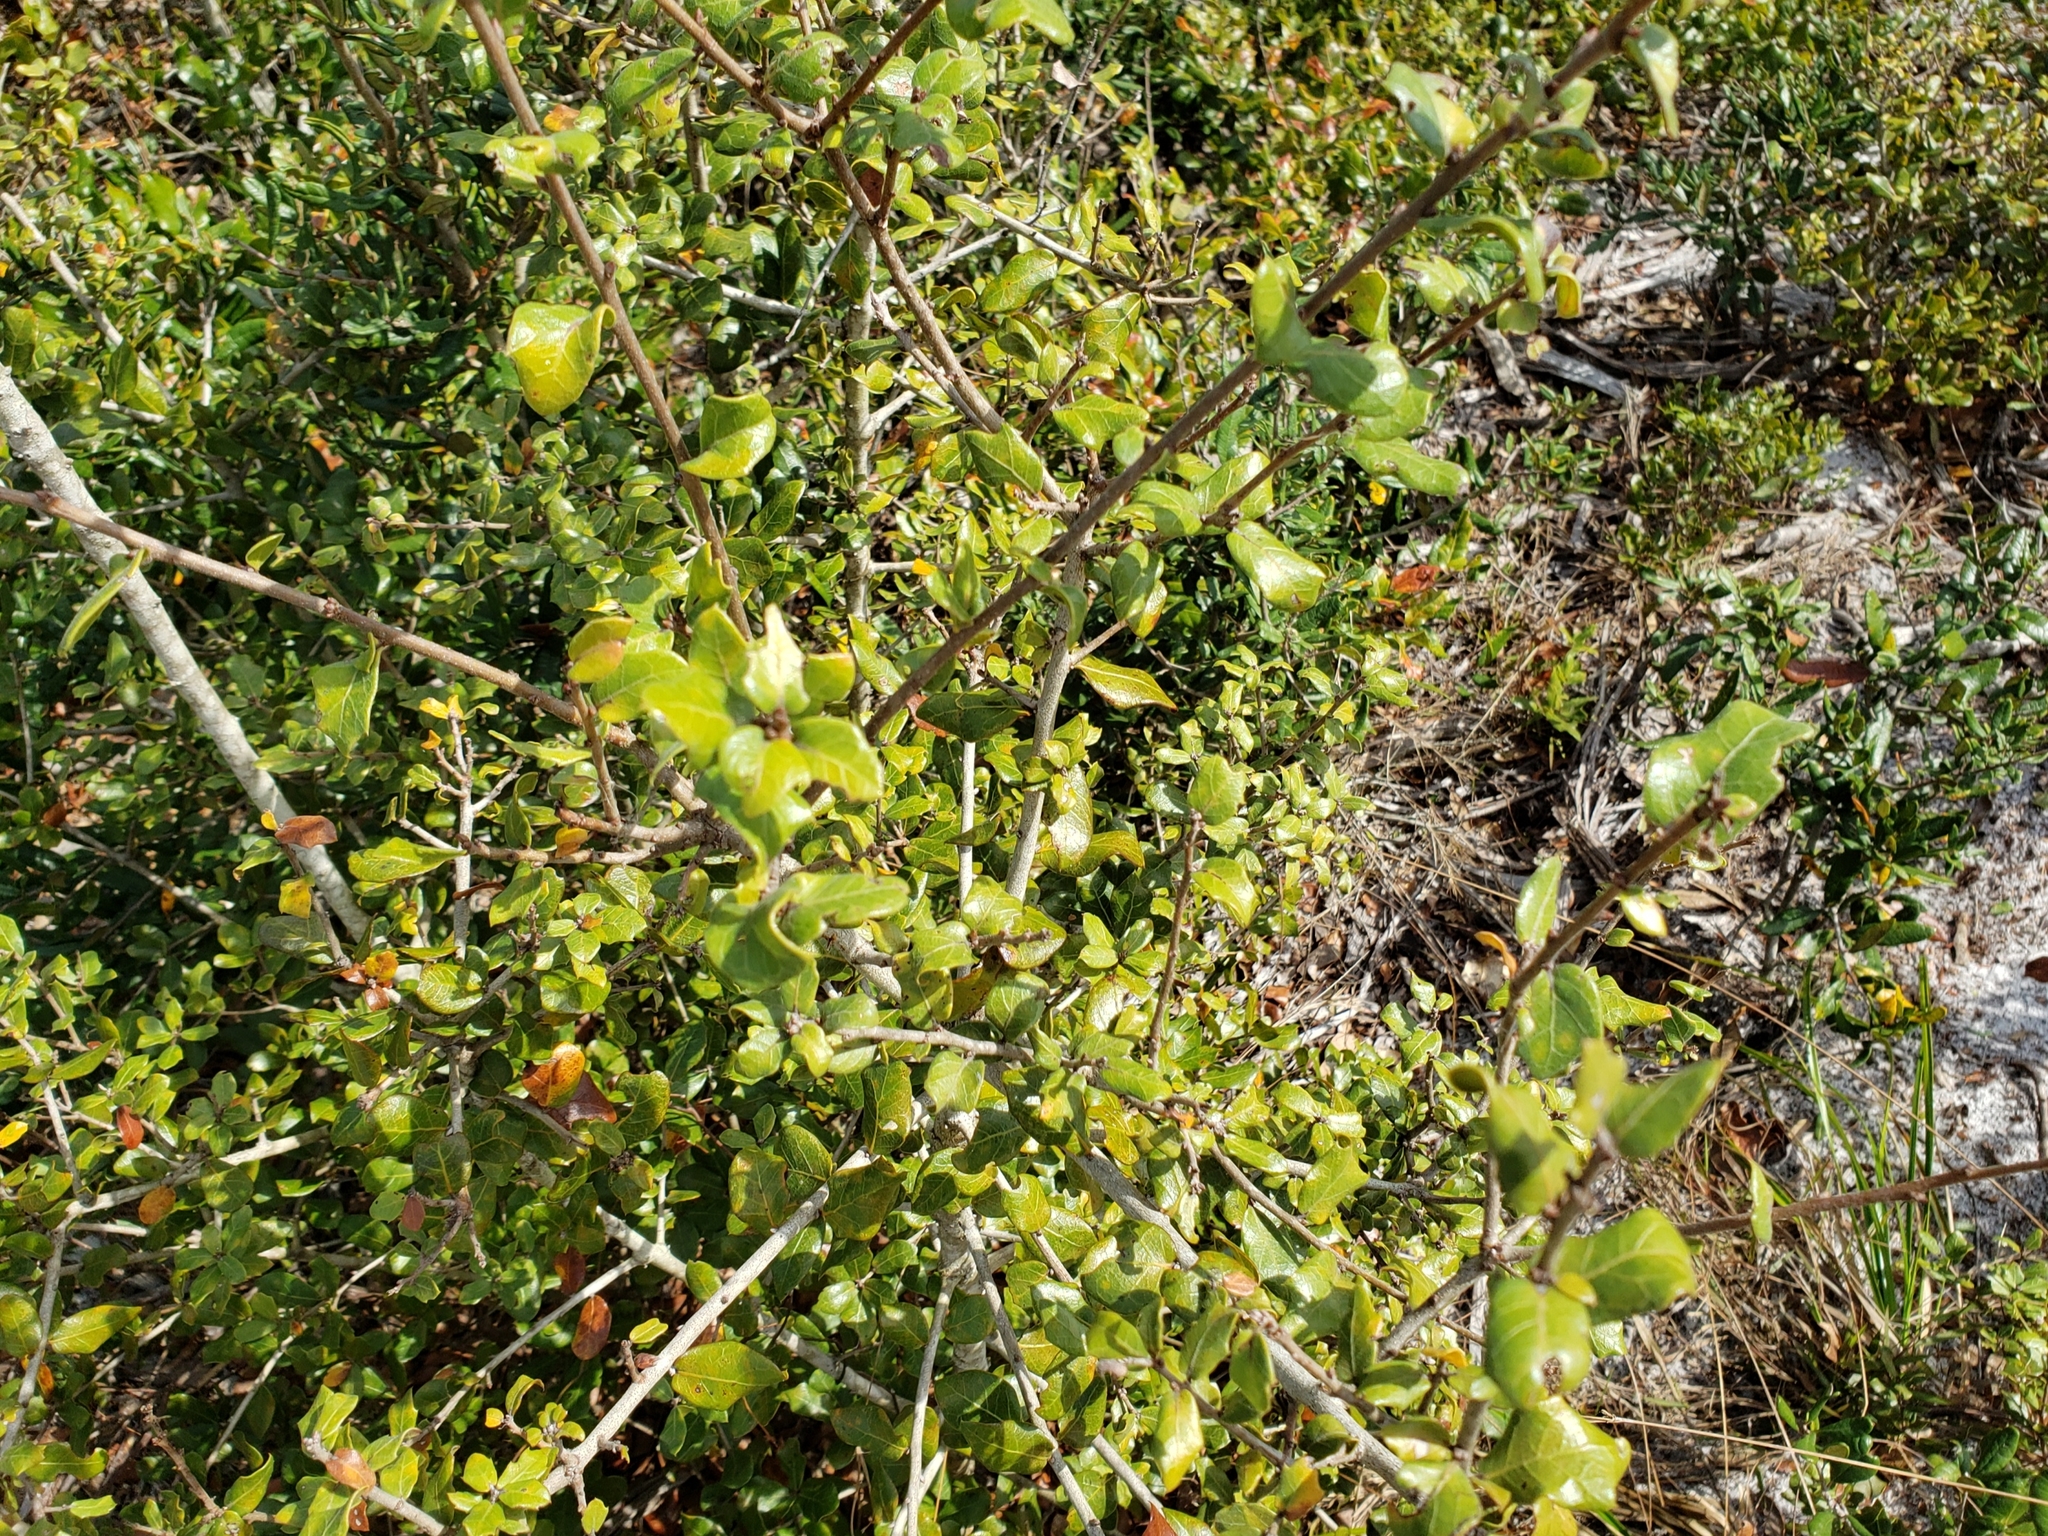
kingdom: Plantae
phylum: Tracheophyta
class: Magnoliopsida
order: Fagales
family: Fagaceae
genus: Quercus
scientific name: Quercus myrtifolia
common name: Myrtle oak
